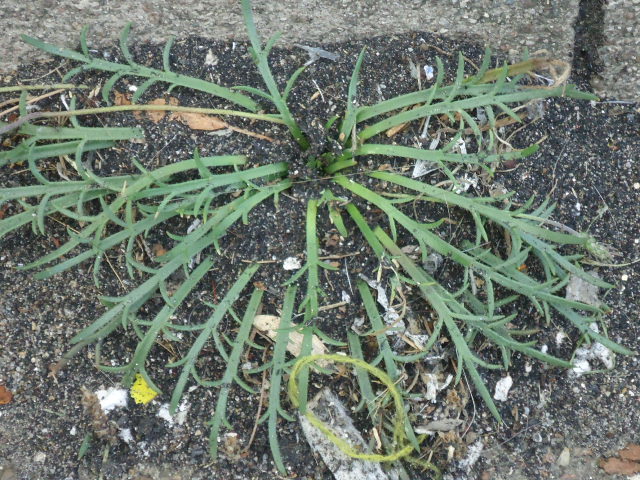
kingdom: Plantae
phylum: Tracheophyta
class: Magnoliopsida
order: Lamiales
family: Plantaginaceae
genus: Plantago
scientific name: Plantago coronopus
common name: Buck's-horn plantain
